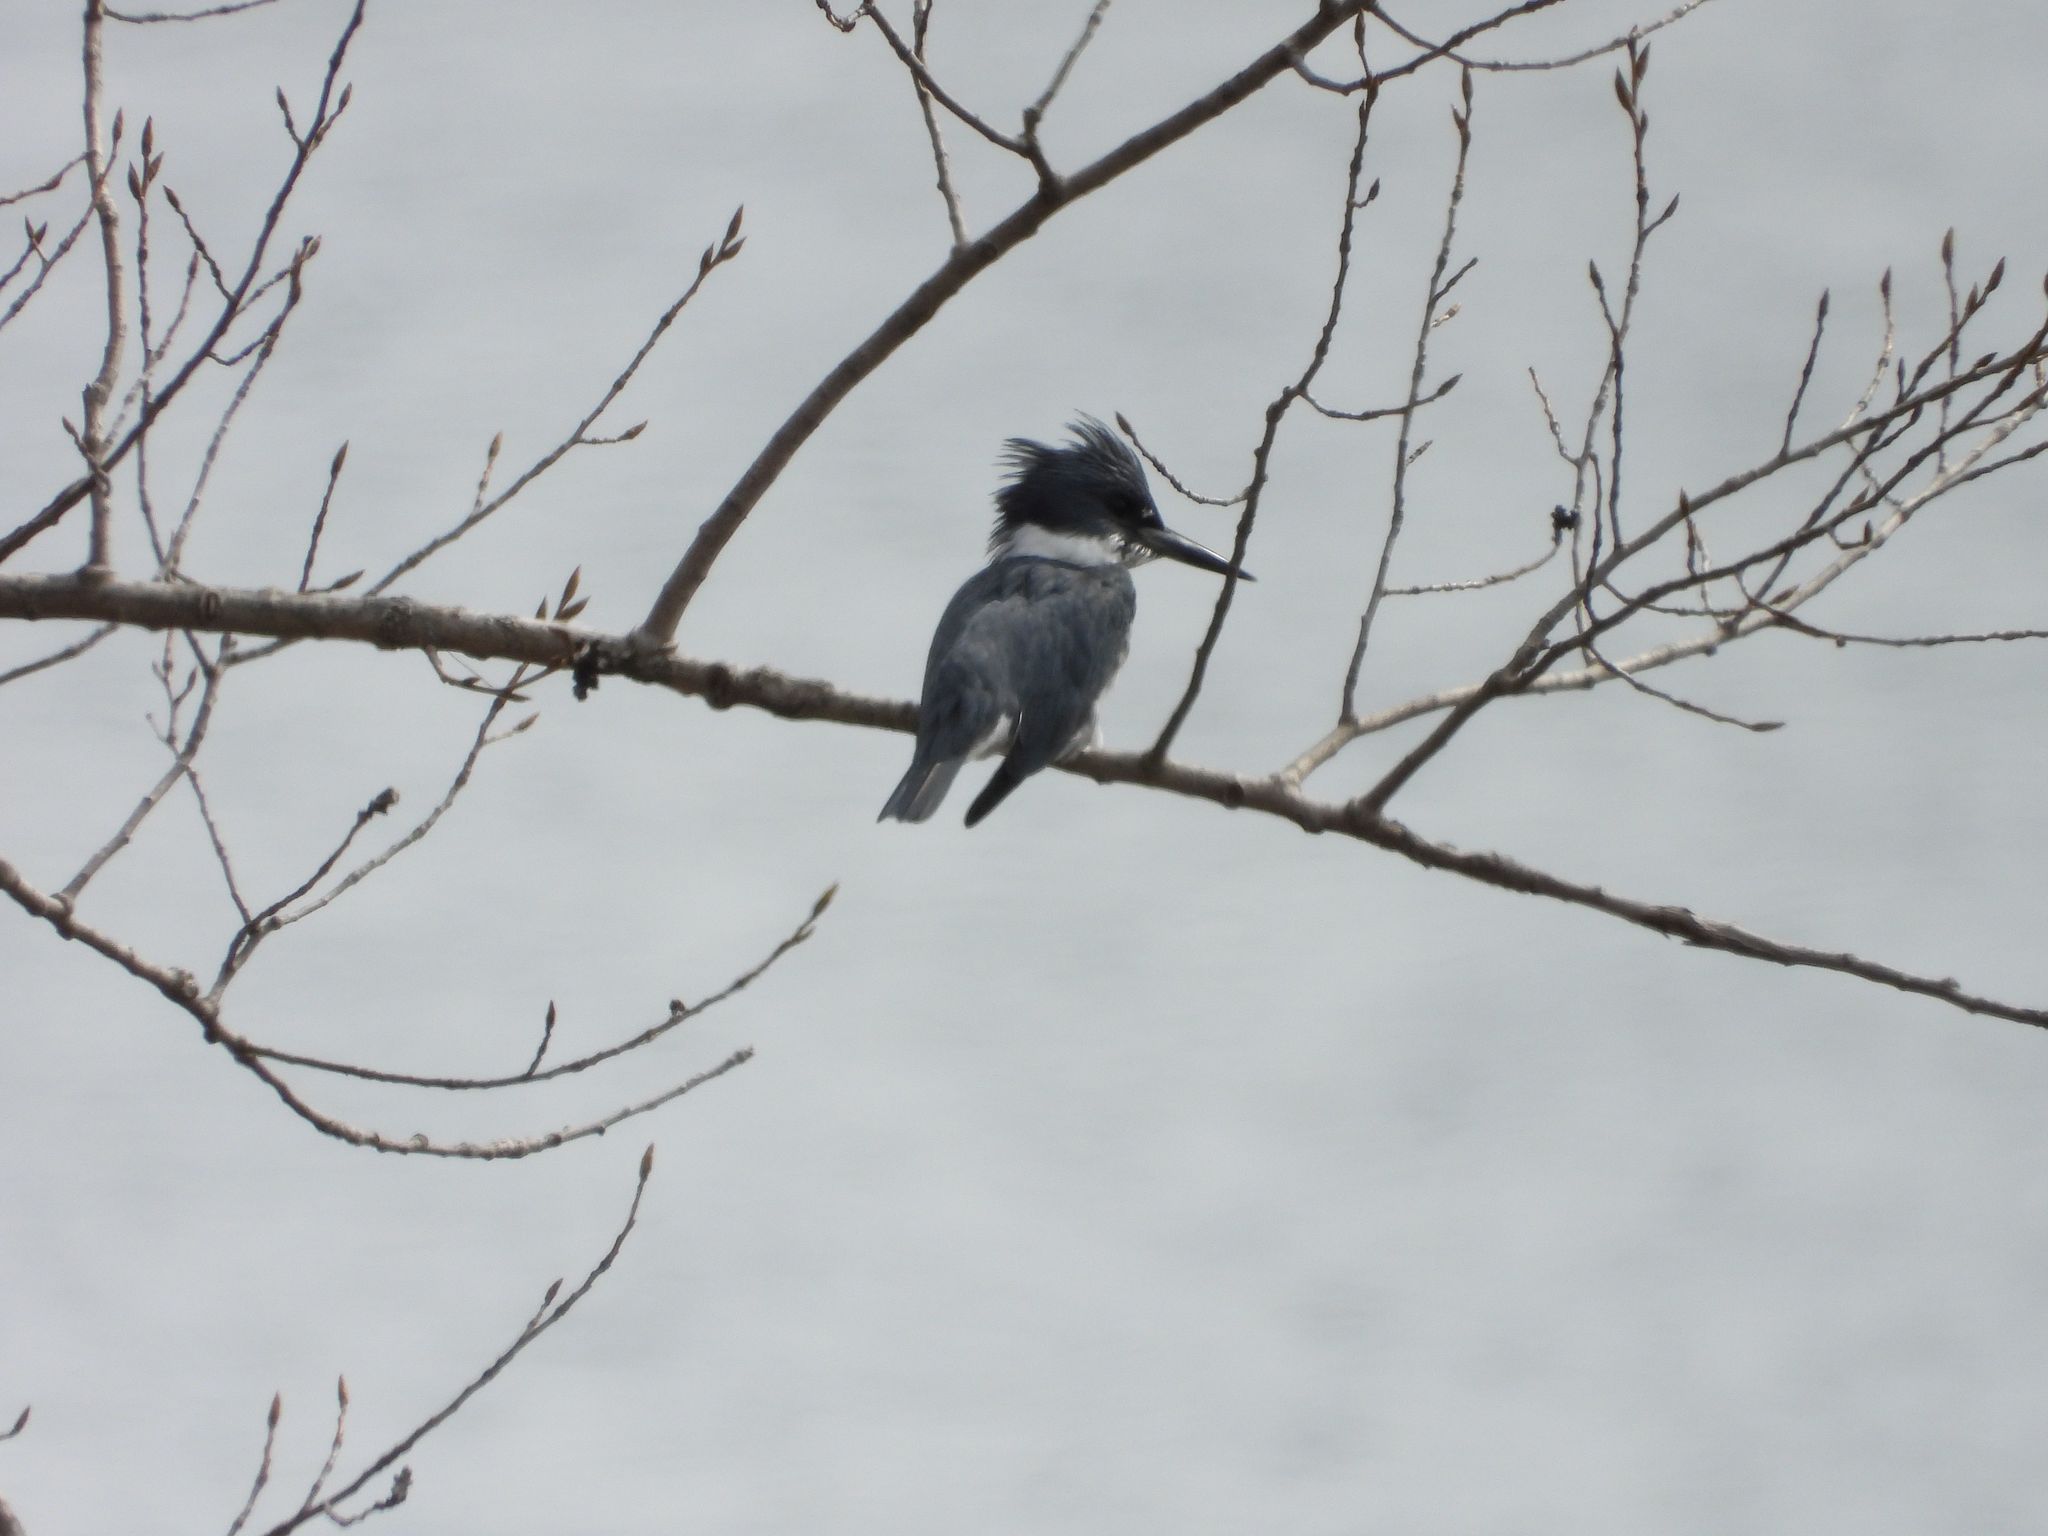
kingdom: Animalia
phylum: Chordata
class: Aves
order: Coraciiformes
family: Alcedinidae
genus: Megaceryle
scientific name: Megaceryle alcyon
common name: Belted kingfisher
